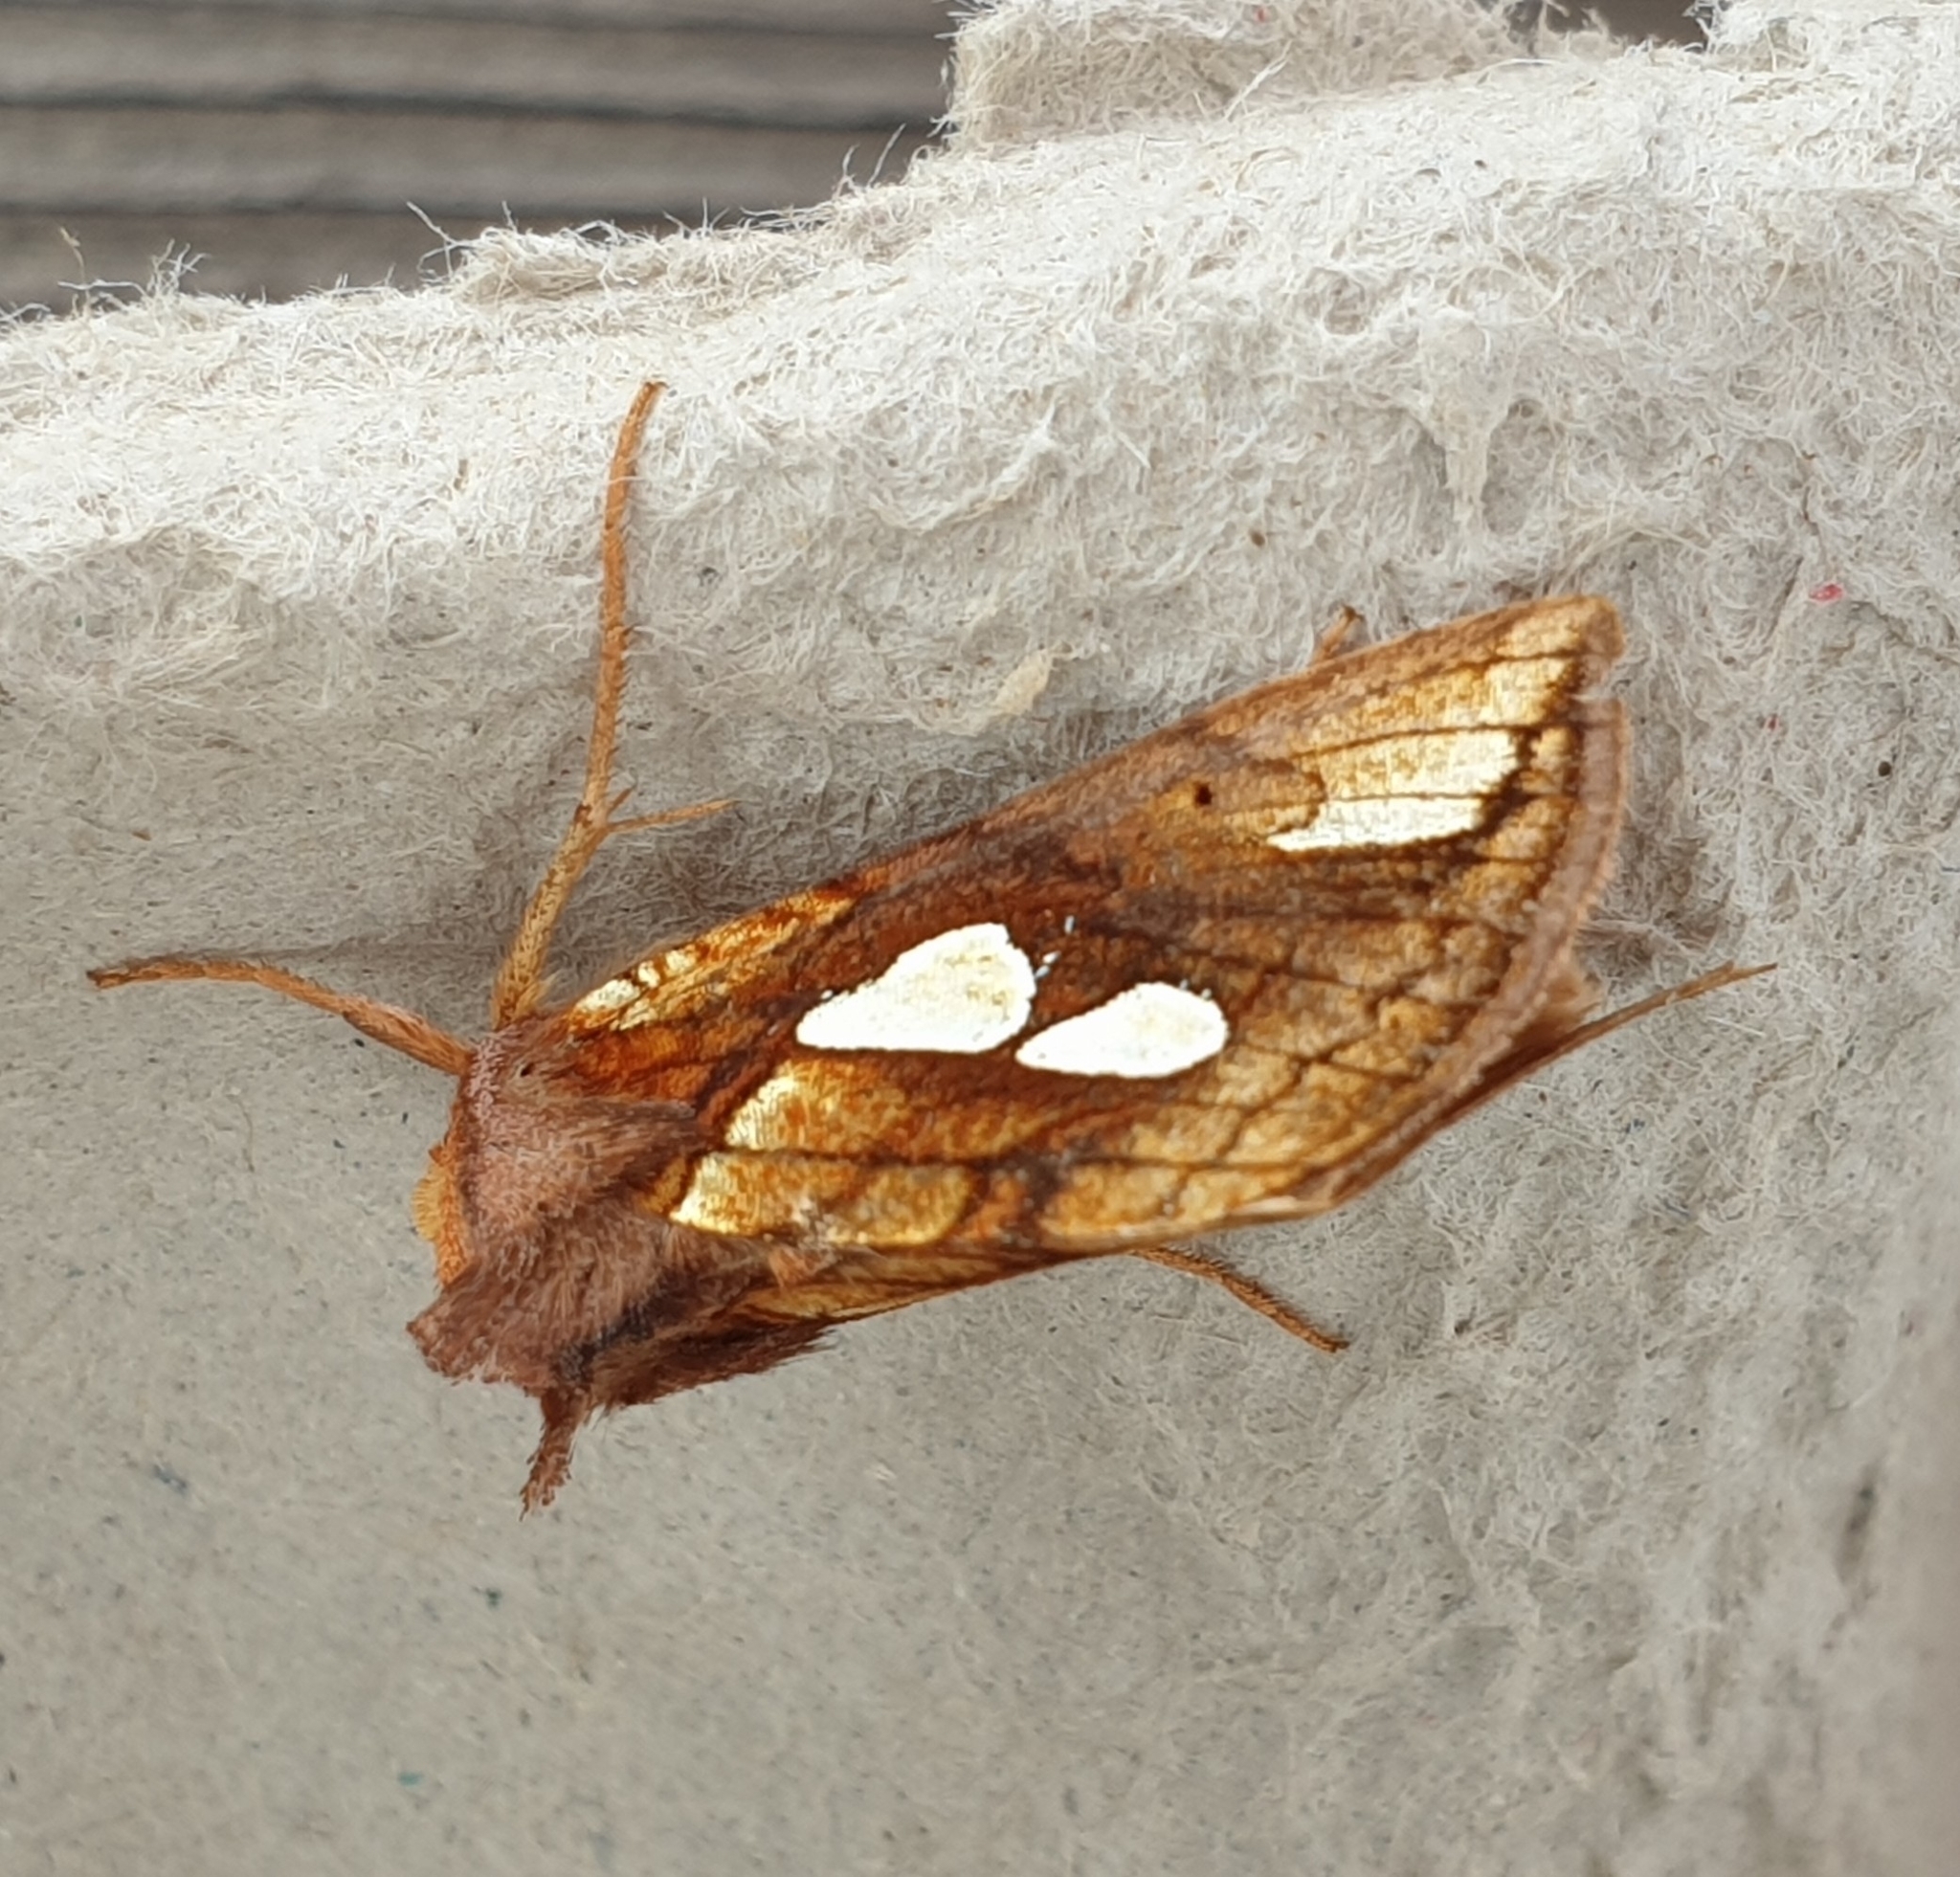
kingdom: Animalia
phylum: Arthropoda
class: Insecta
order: Lepidoptera
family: Noctuidae
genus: Plusia
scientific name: Plusia festucae
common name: Gold spot
